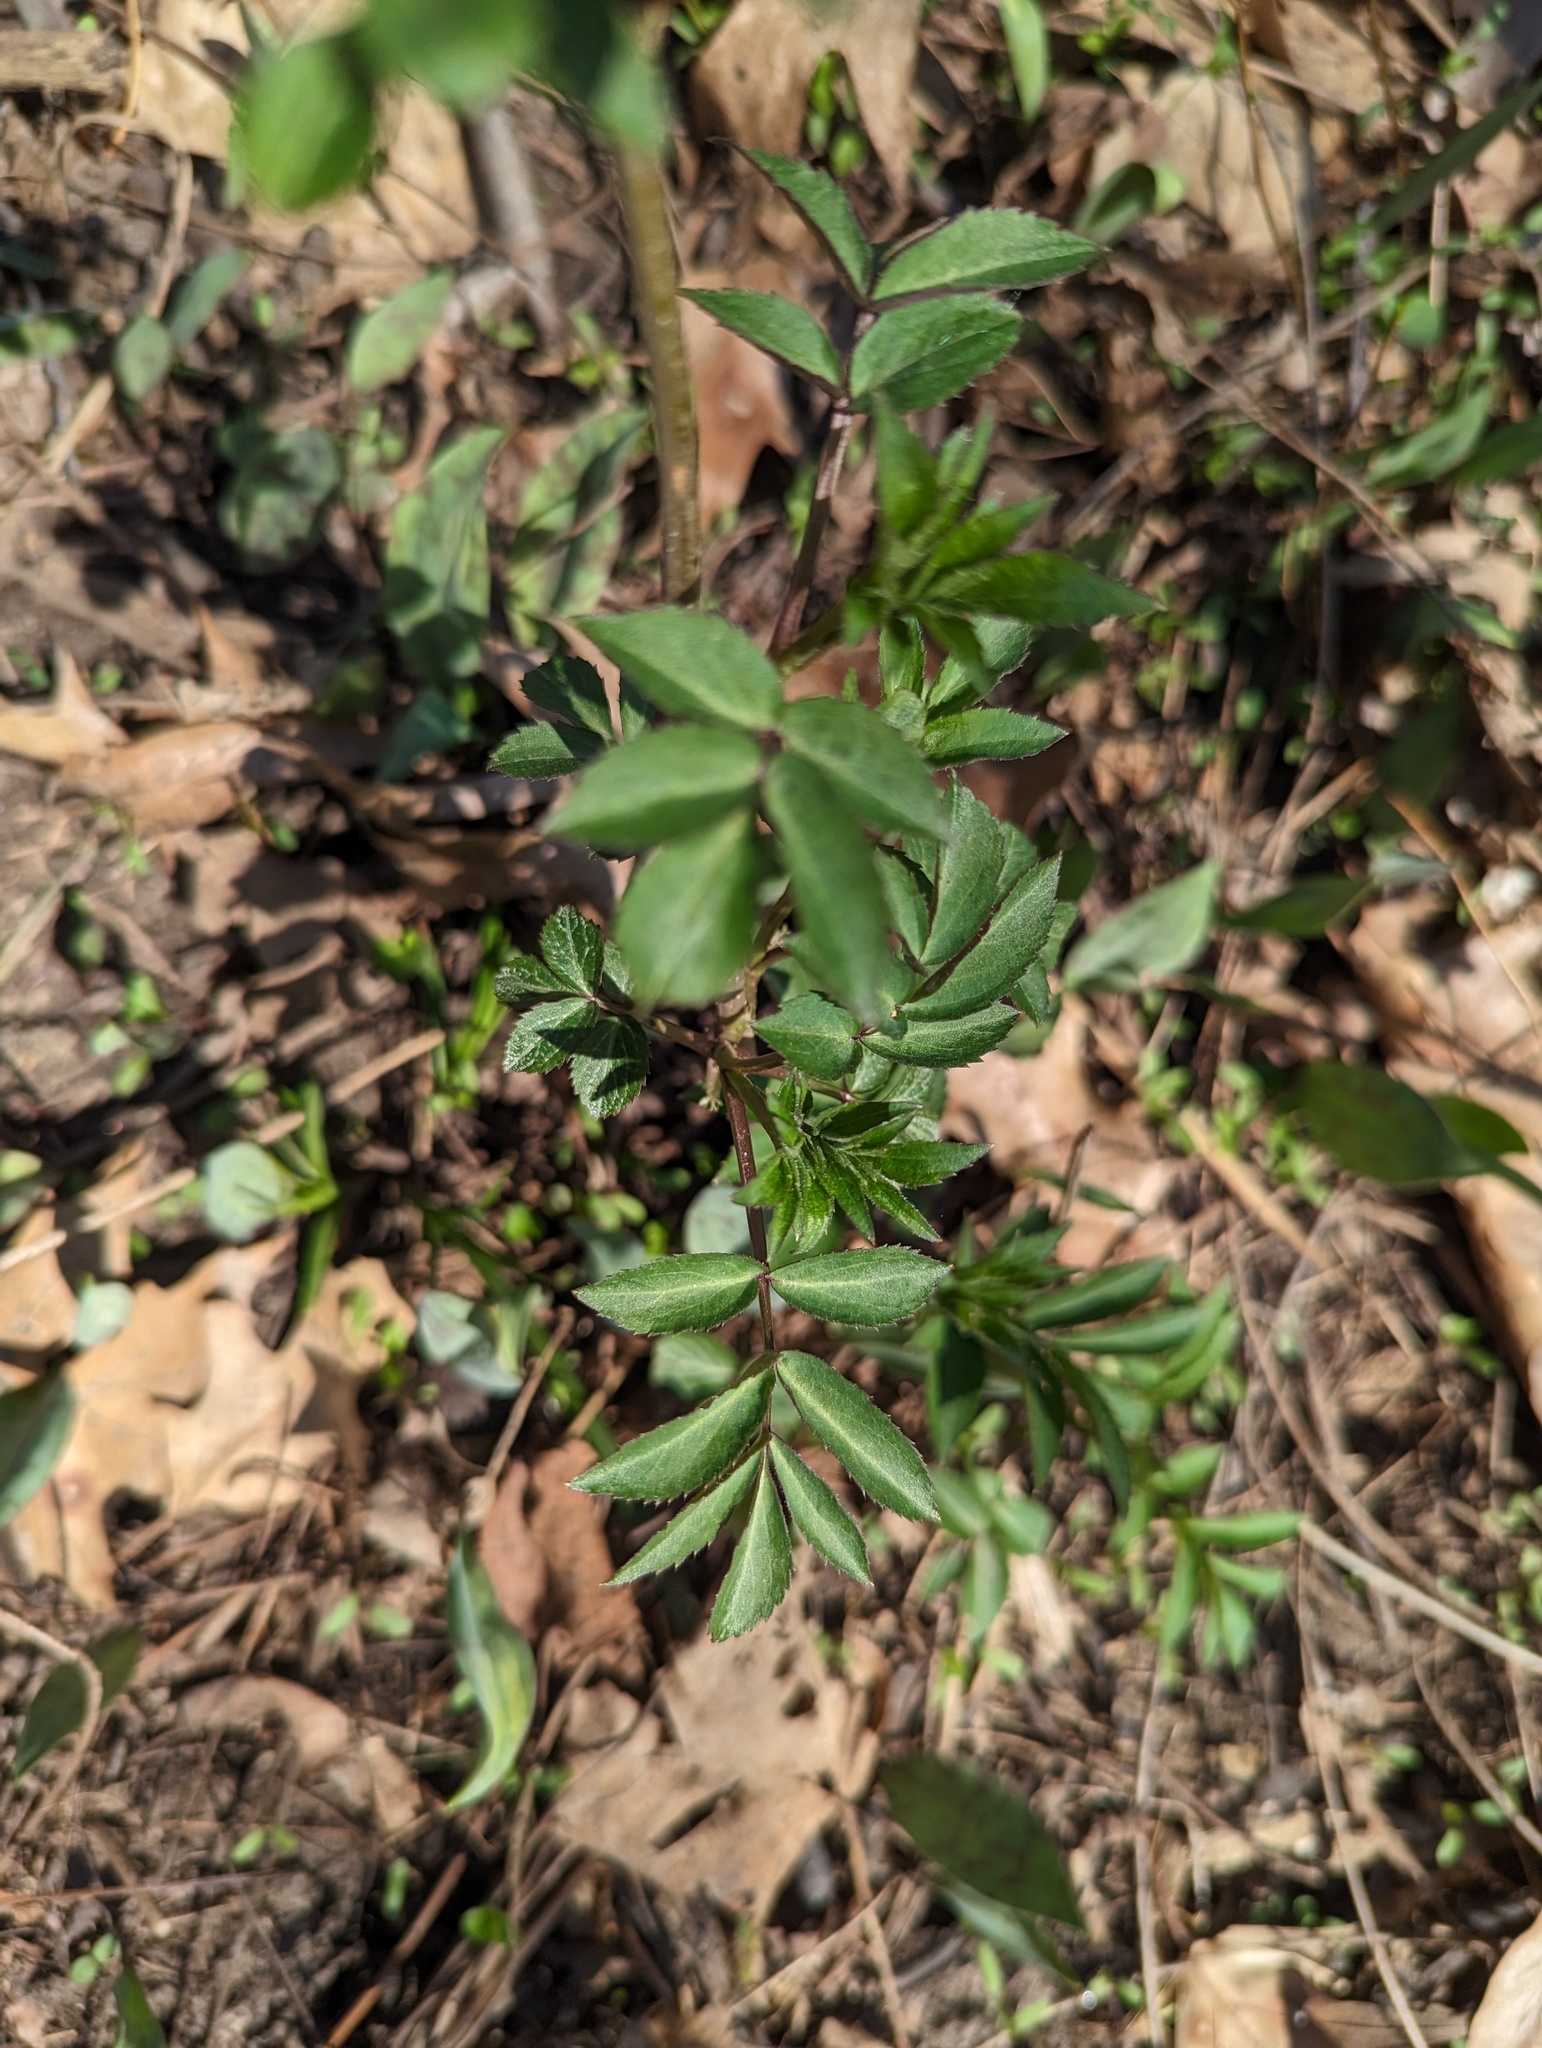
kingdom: Plantae
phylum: Tracheophyta
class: Magnoliopsida
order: Dipsacales
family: Viburnaceae
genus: Sambucus
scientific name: Sambucus canadensis
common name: American elder
